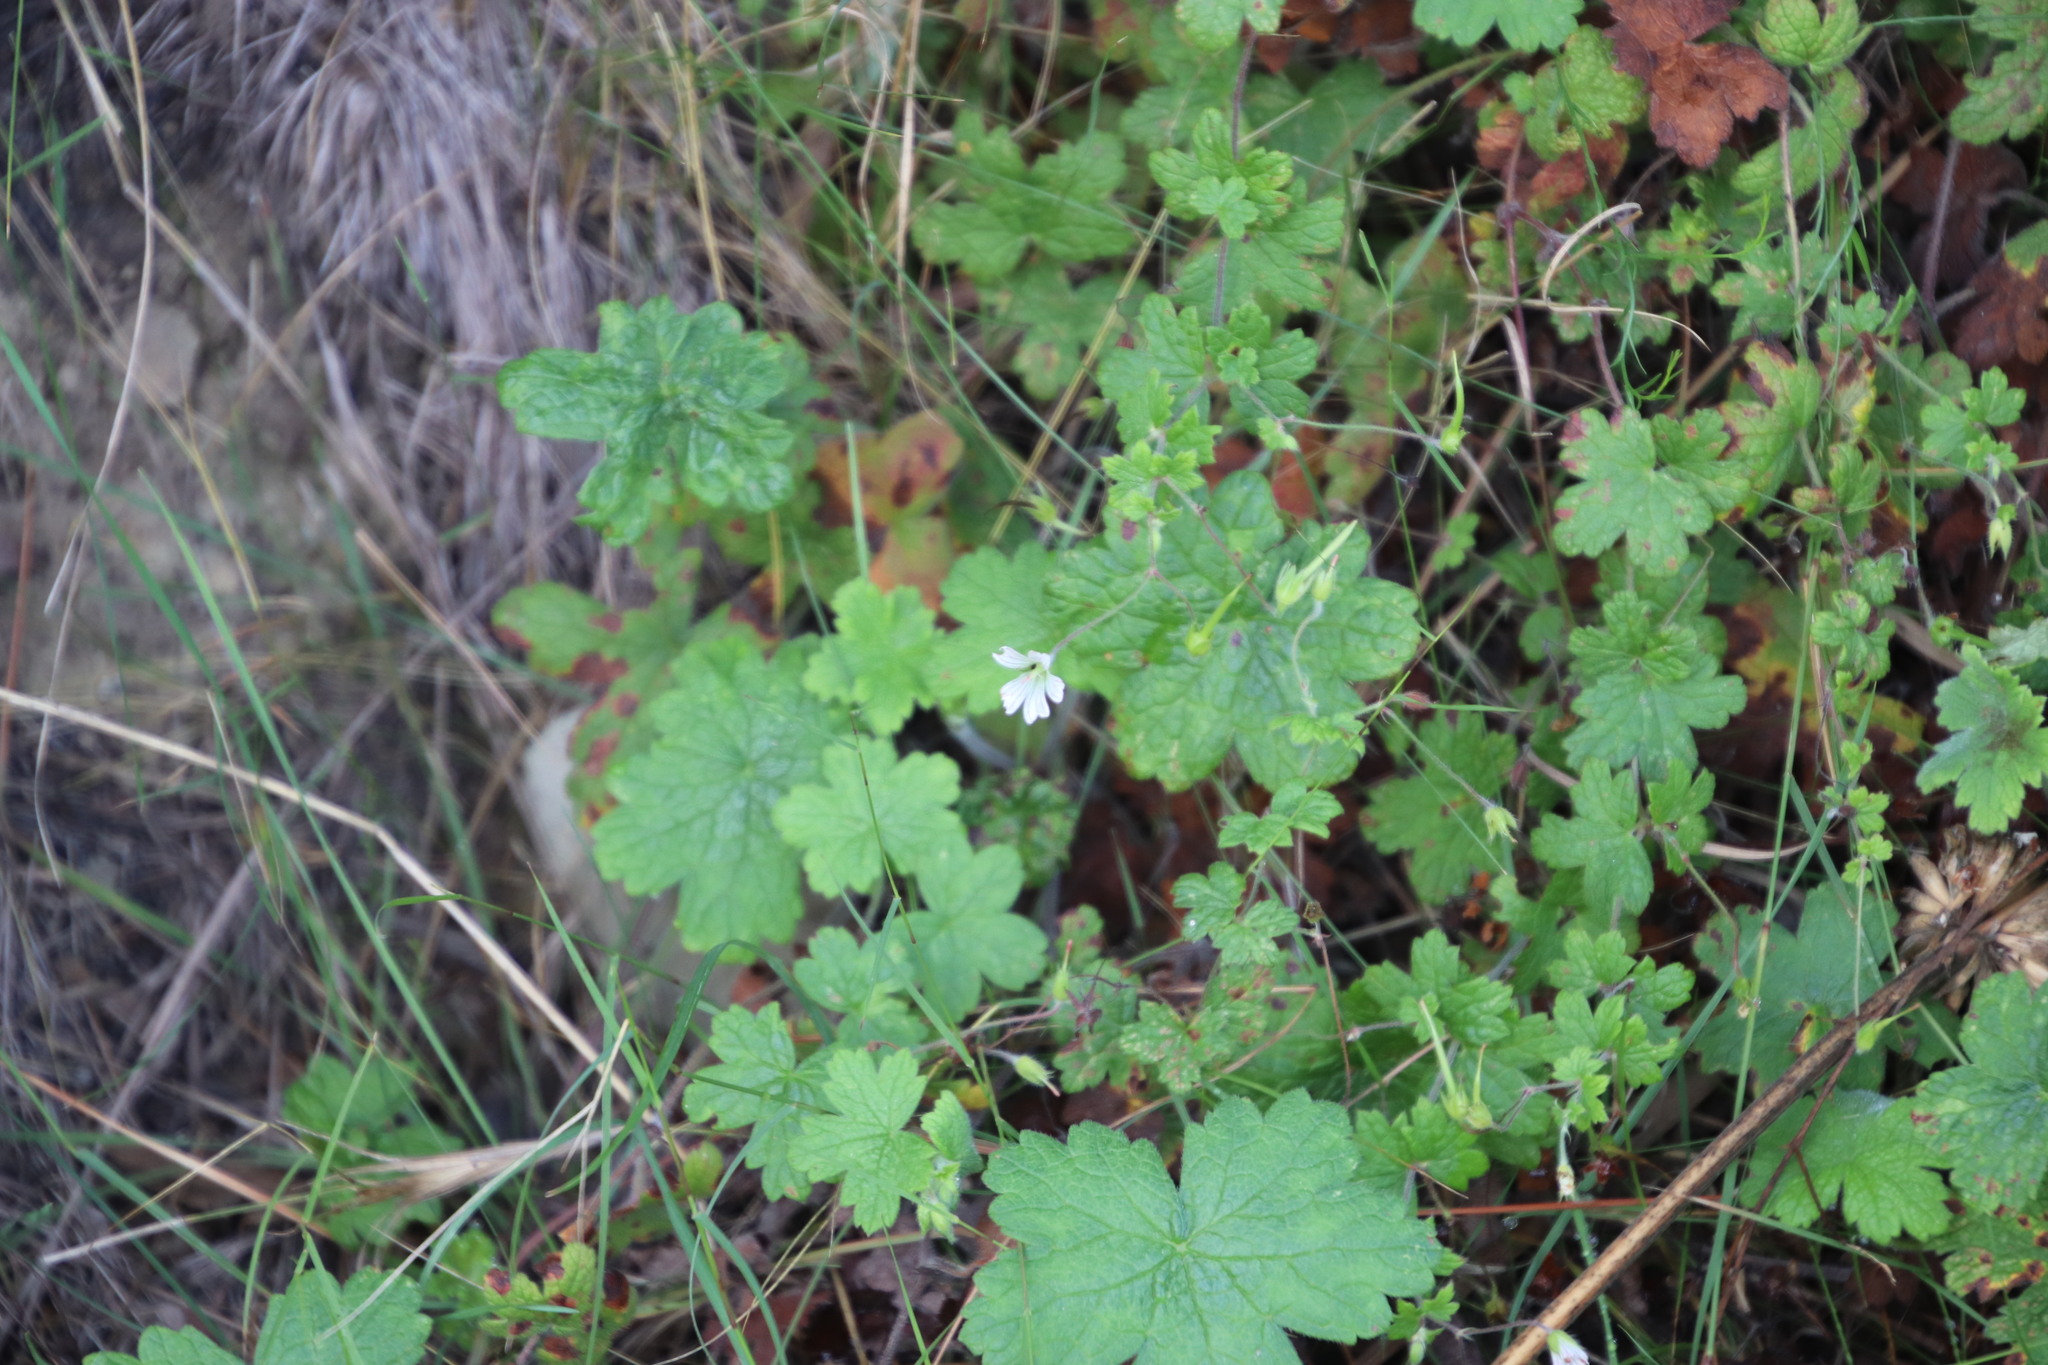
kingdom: Plantae
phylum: Tracheophyta
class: Magnoliopsida
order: Geraniales
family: Geraniaceae
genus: Geranium
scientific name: Geranium wakkerstroomianum
